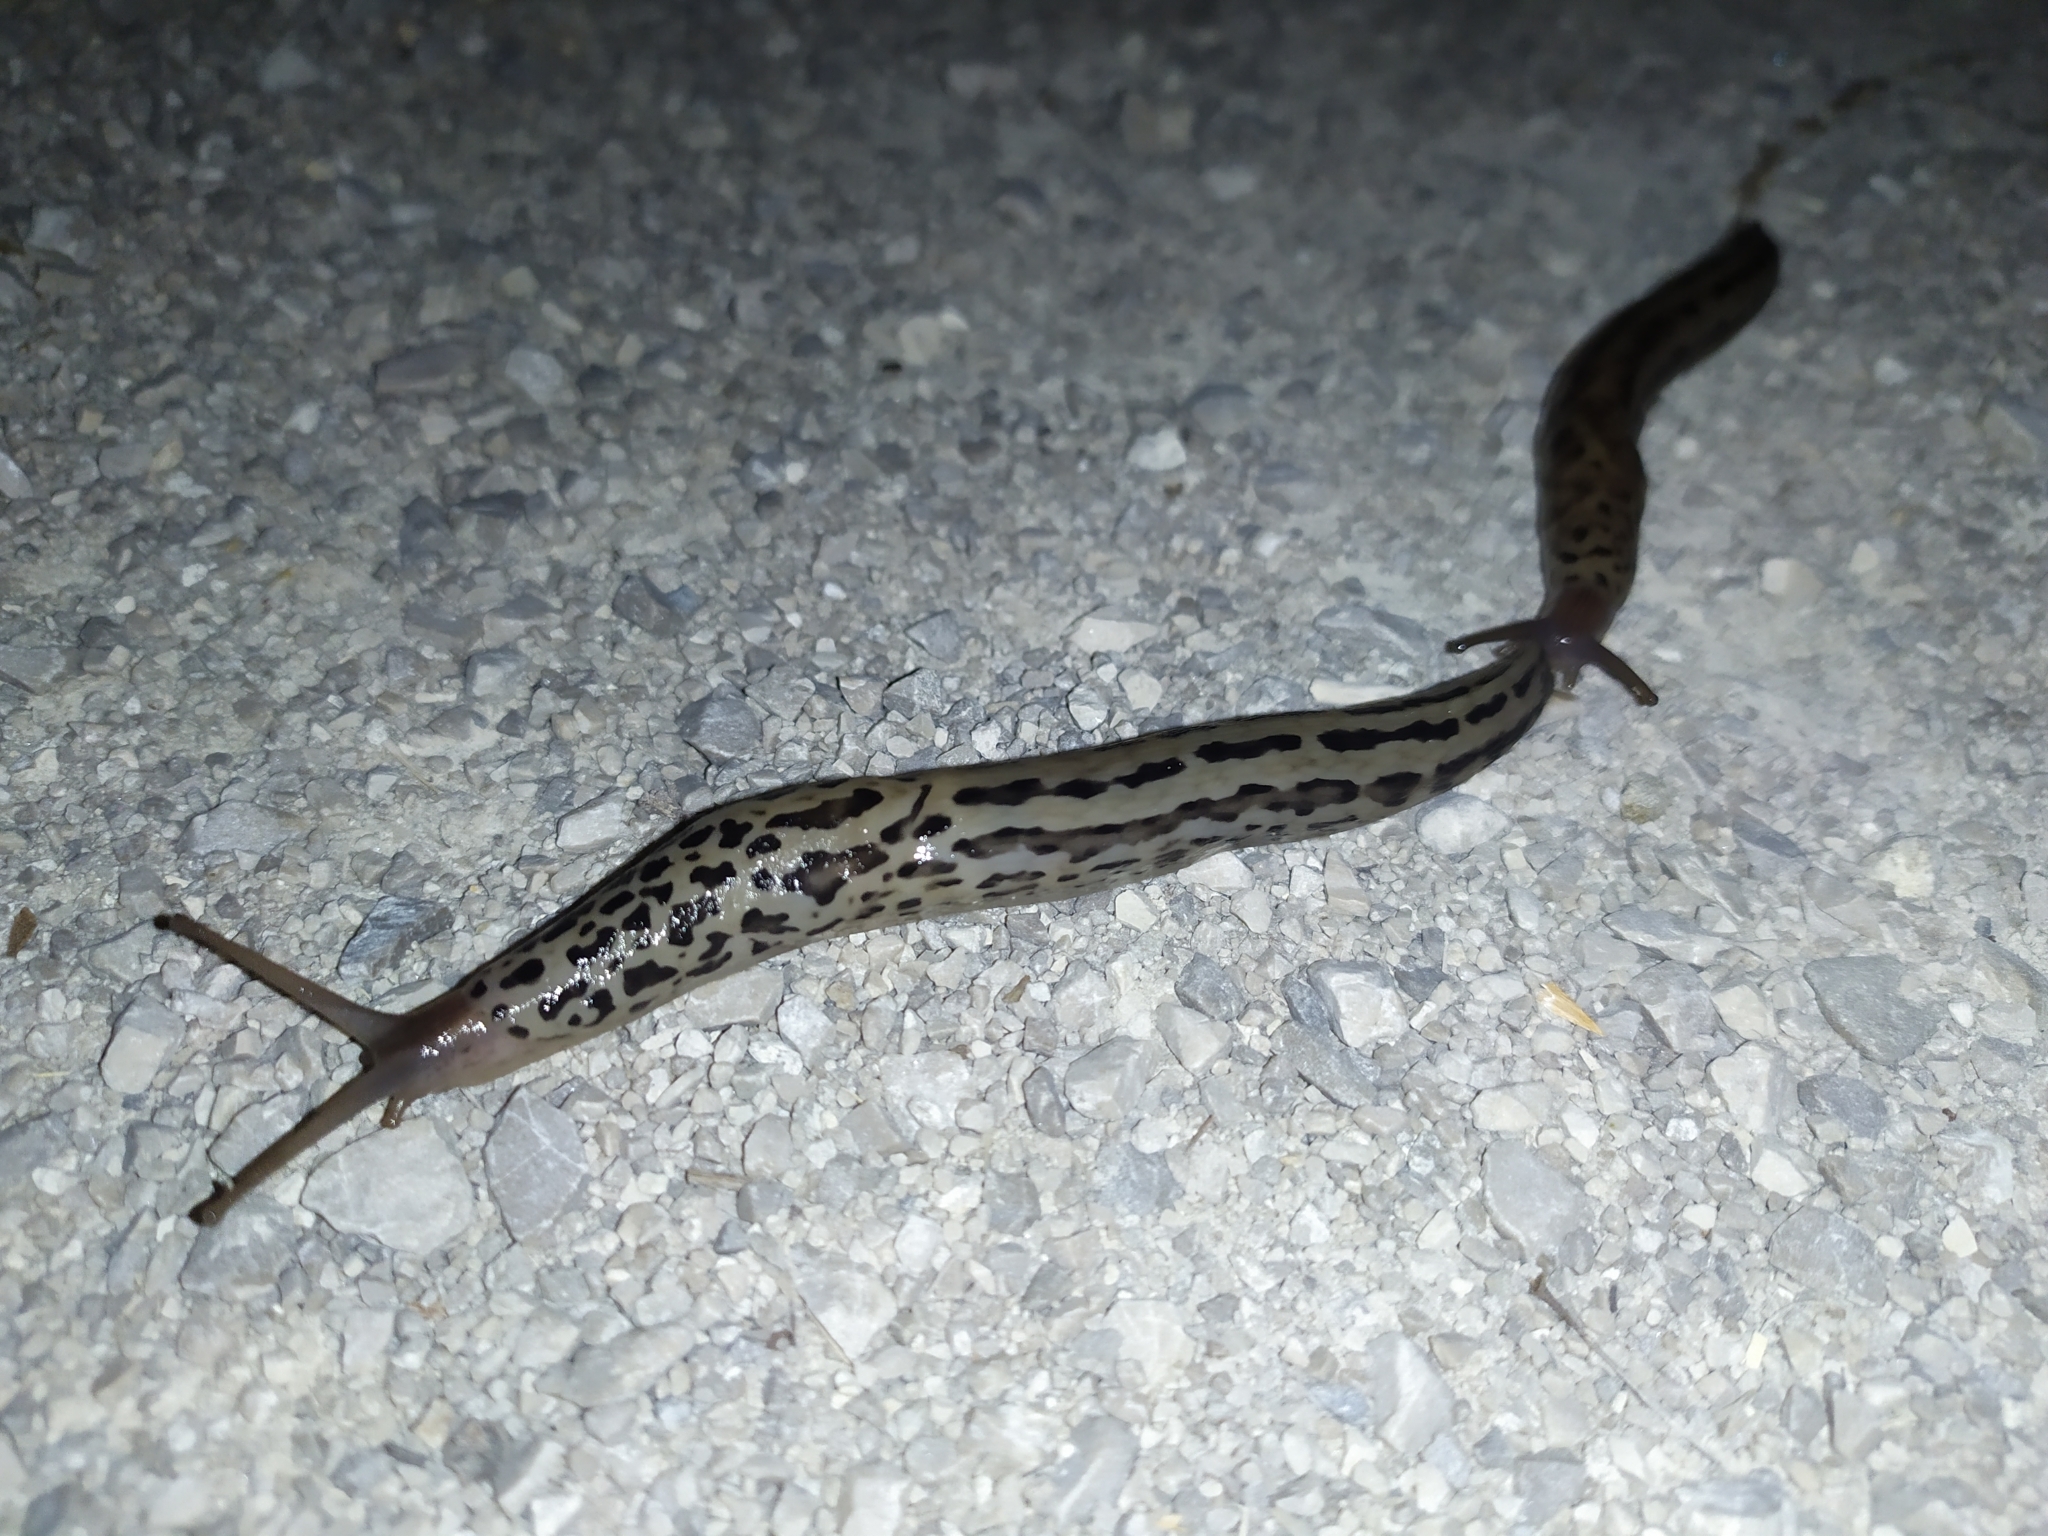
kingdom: Animalia
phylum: Mollusca
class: Gastropoda
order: Stylommatophora
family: Limacidae
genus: Limax
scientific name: Limax maximus
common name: Great grey slug
